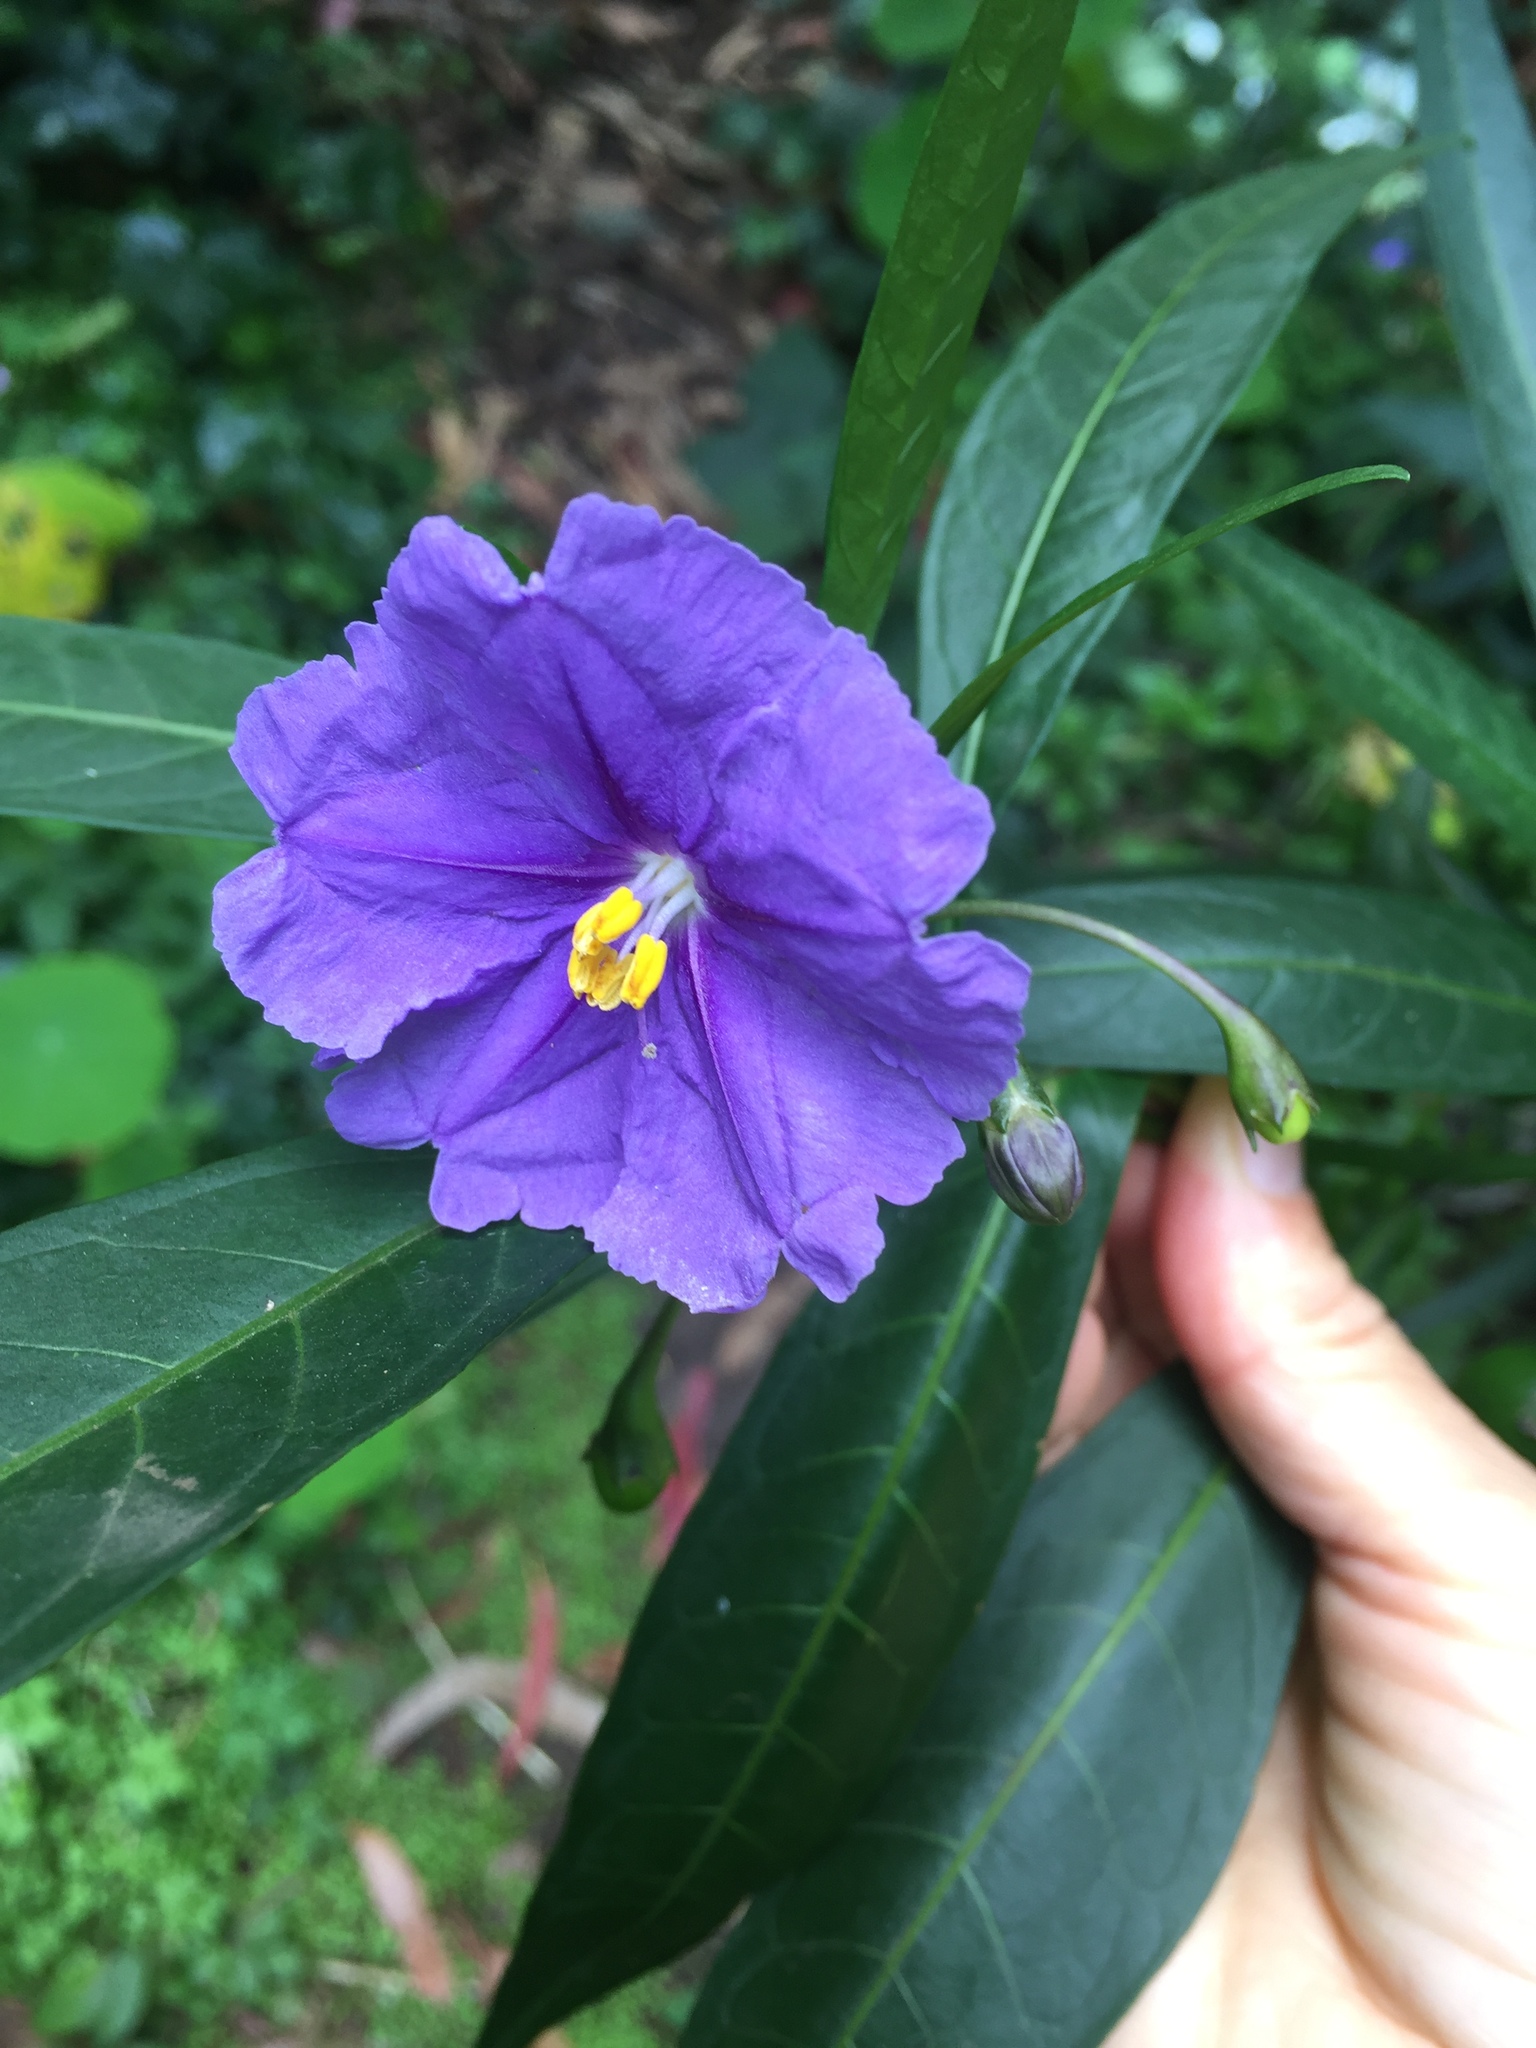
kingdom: Plantae
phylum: Tracheophyta
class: Magnoliopsida
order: Solanales
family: Solanaceae
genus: Solanum
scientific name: Solanum laciniatum
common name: Kangaroo-apple
